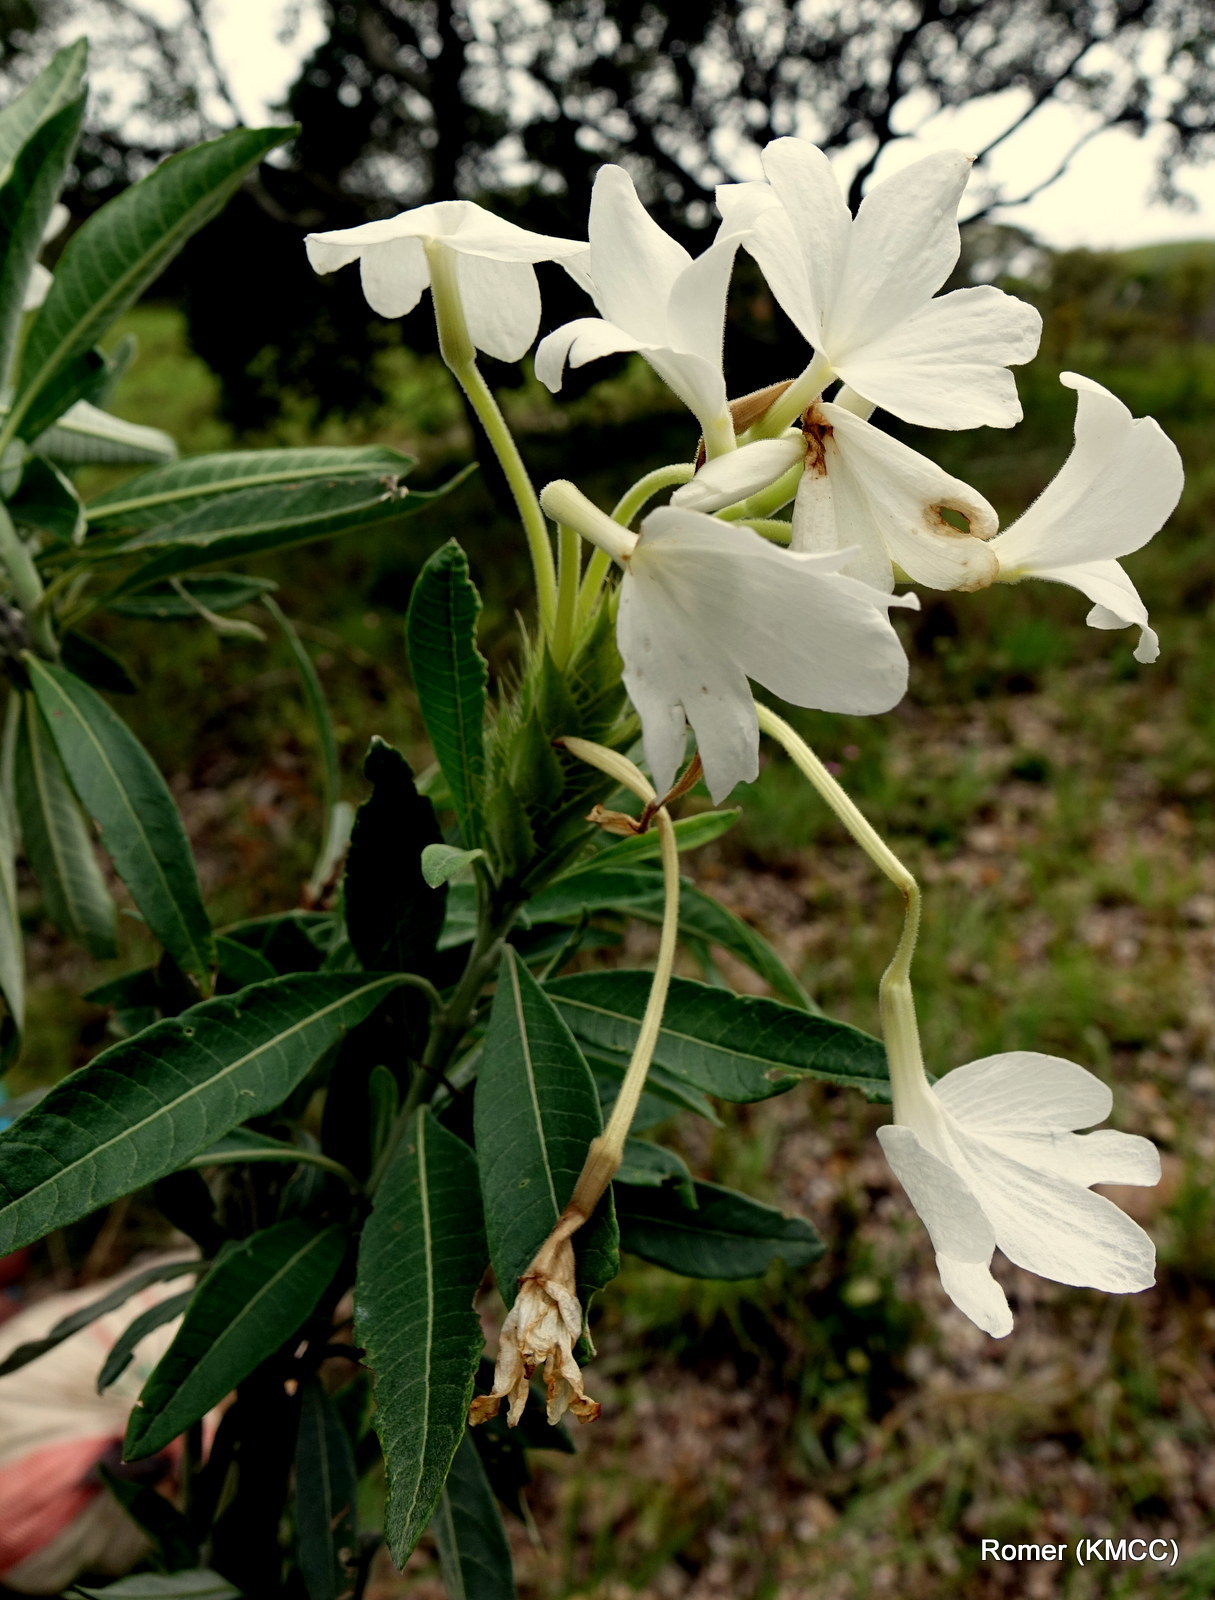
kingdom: Plantae
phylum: Tracheophyta
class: Magnoliopsida
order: Lamiales
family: Acanthaceae
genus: Crossandra
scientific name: Crossandra nobilis
